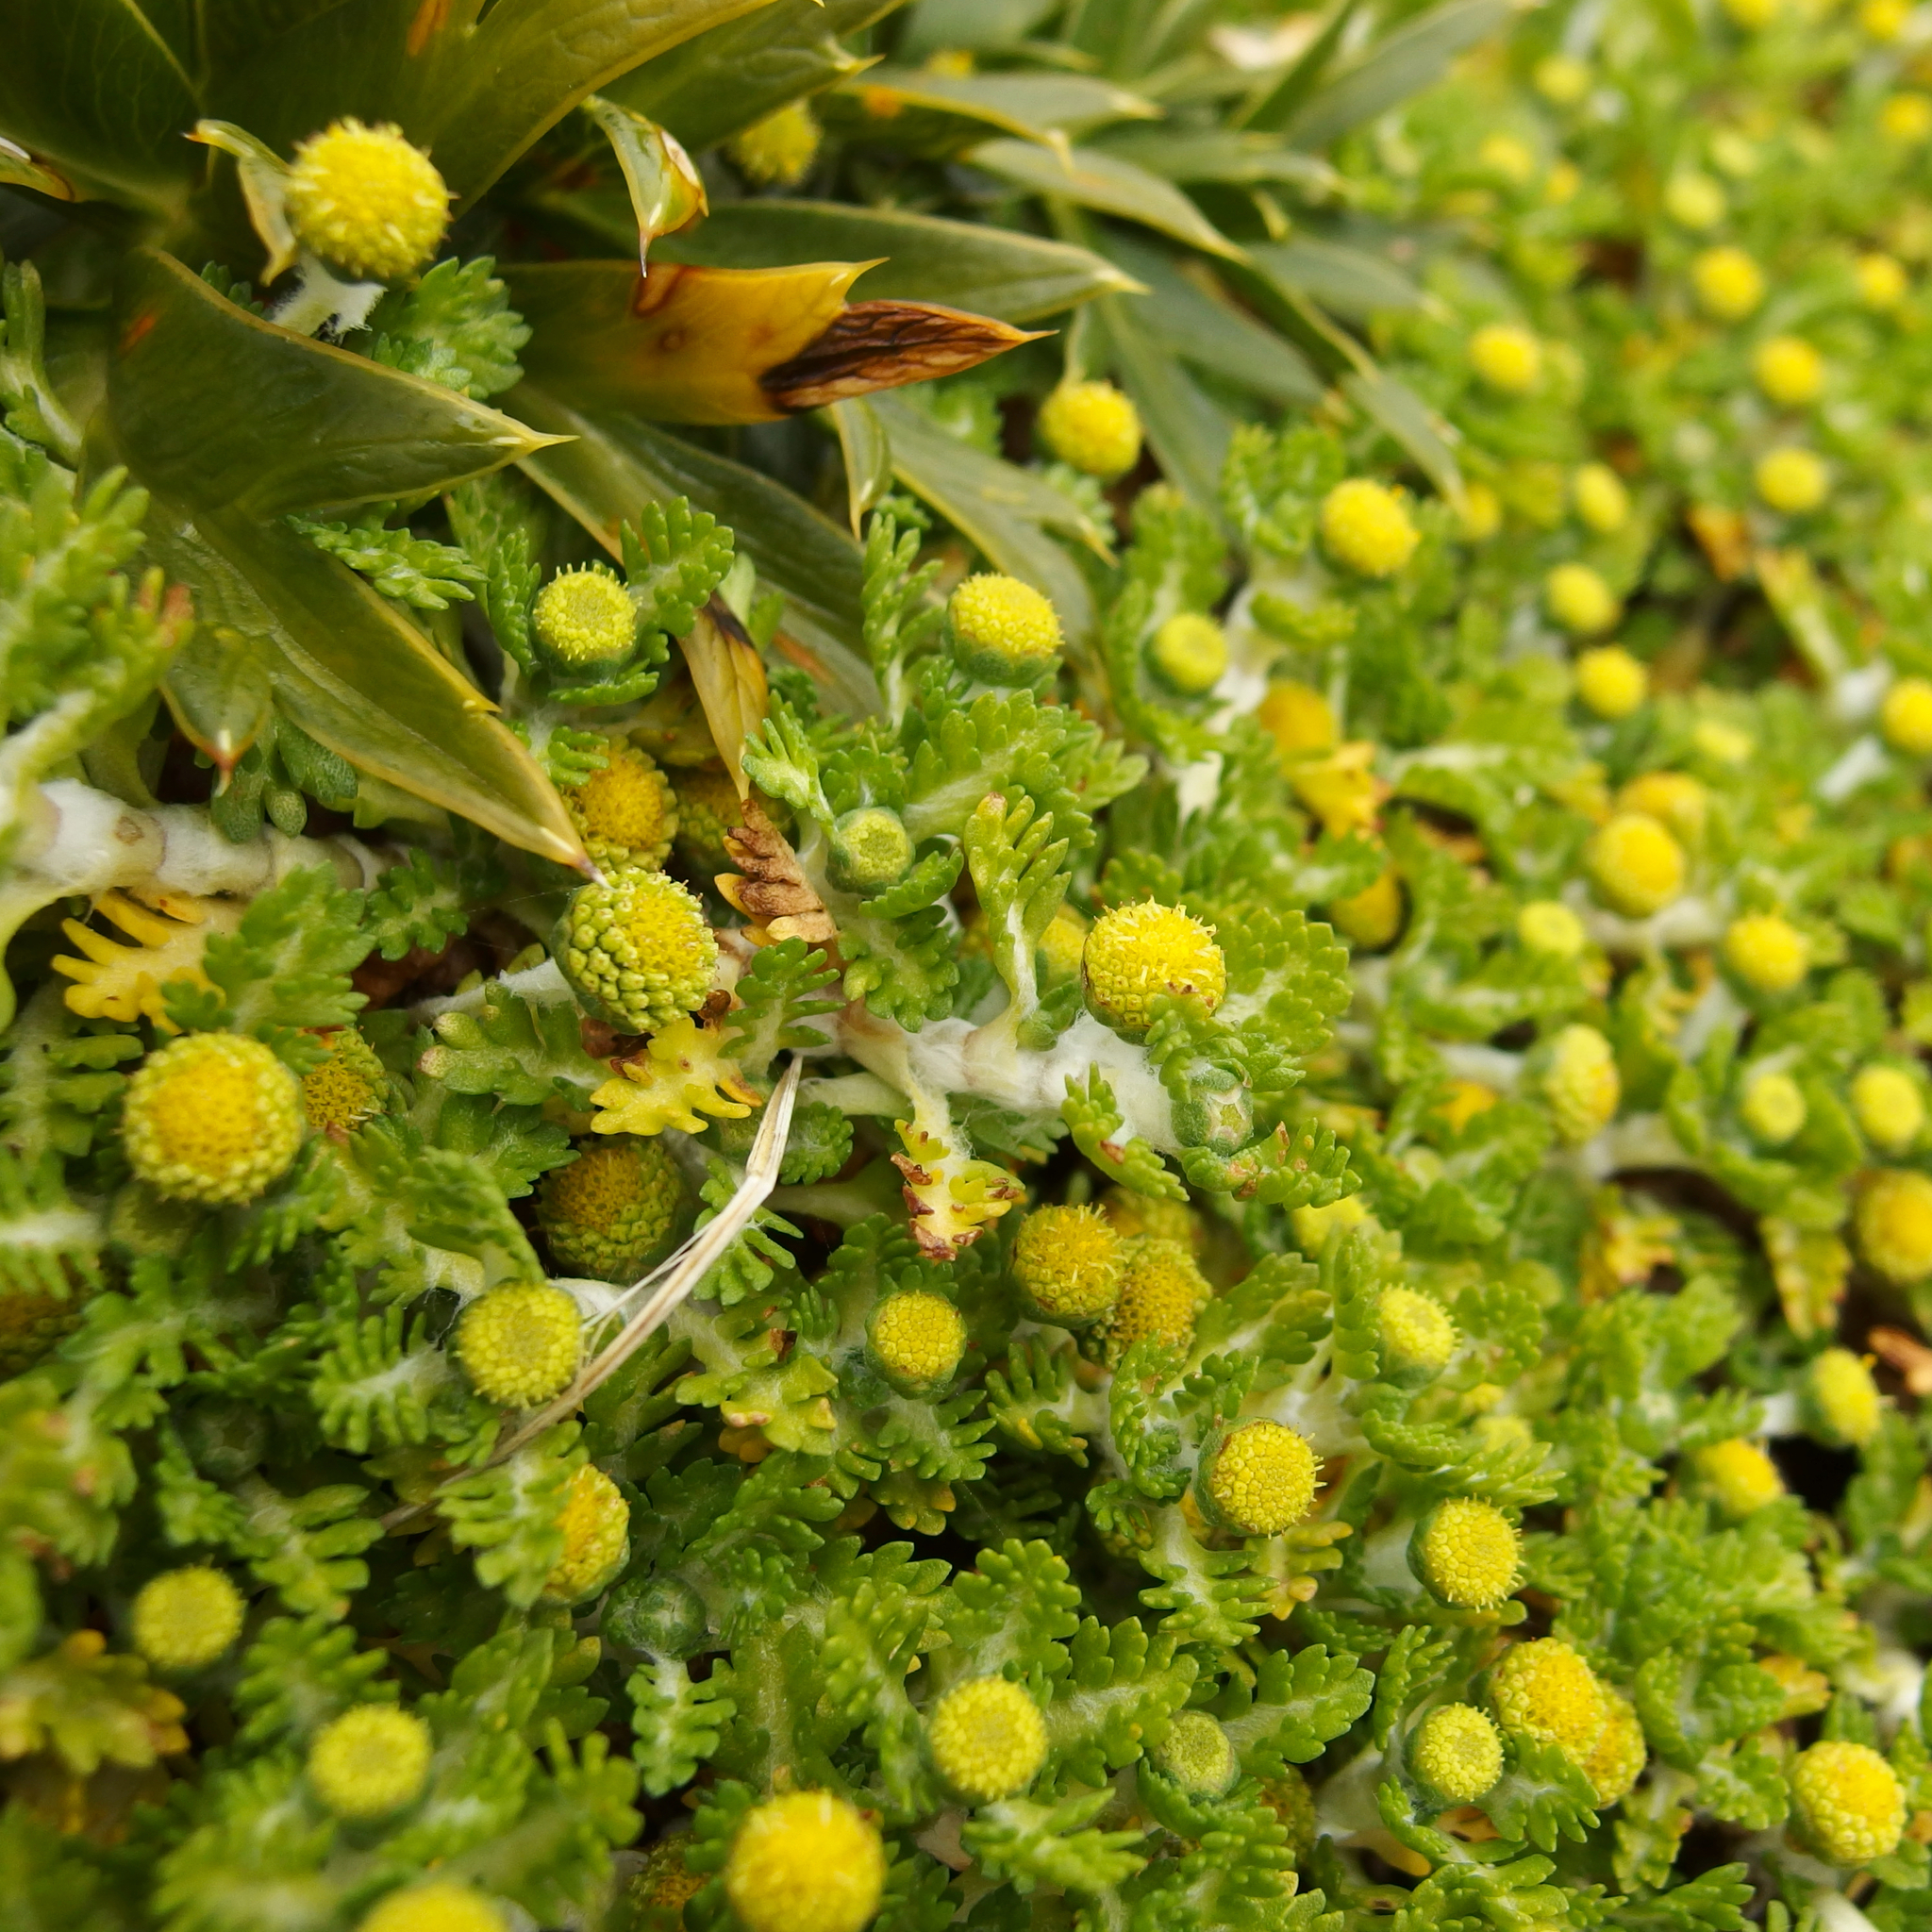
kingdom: Plantae
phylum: Tracheophyta
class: Magnoliopsida
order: Asterales
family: Asteraceae
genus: Leptinella
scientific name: Leptinella lanata
